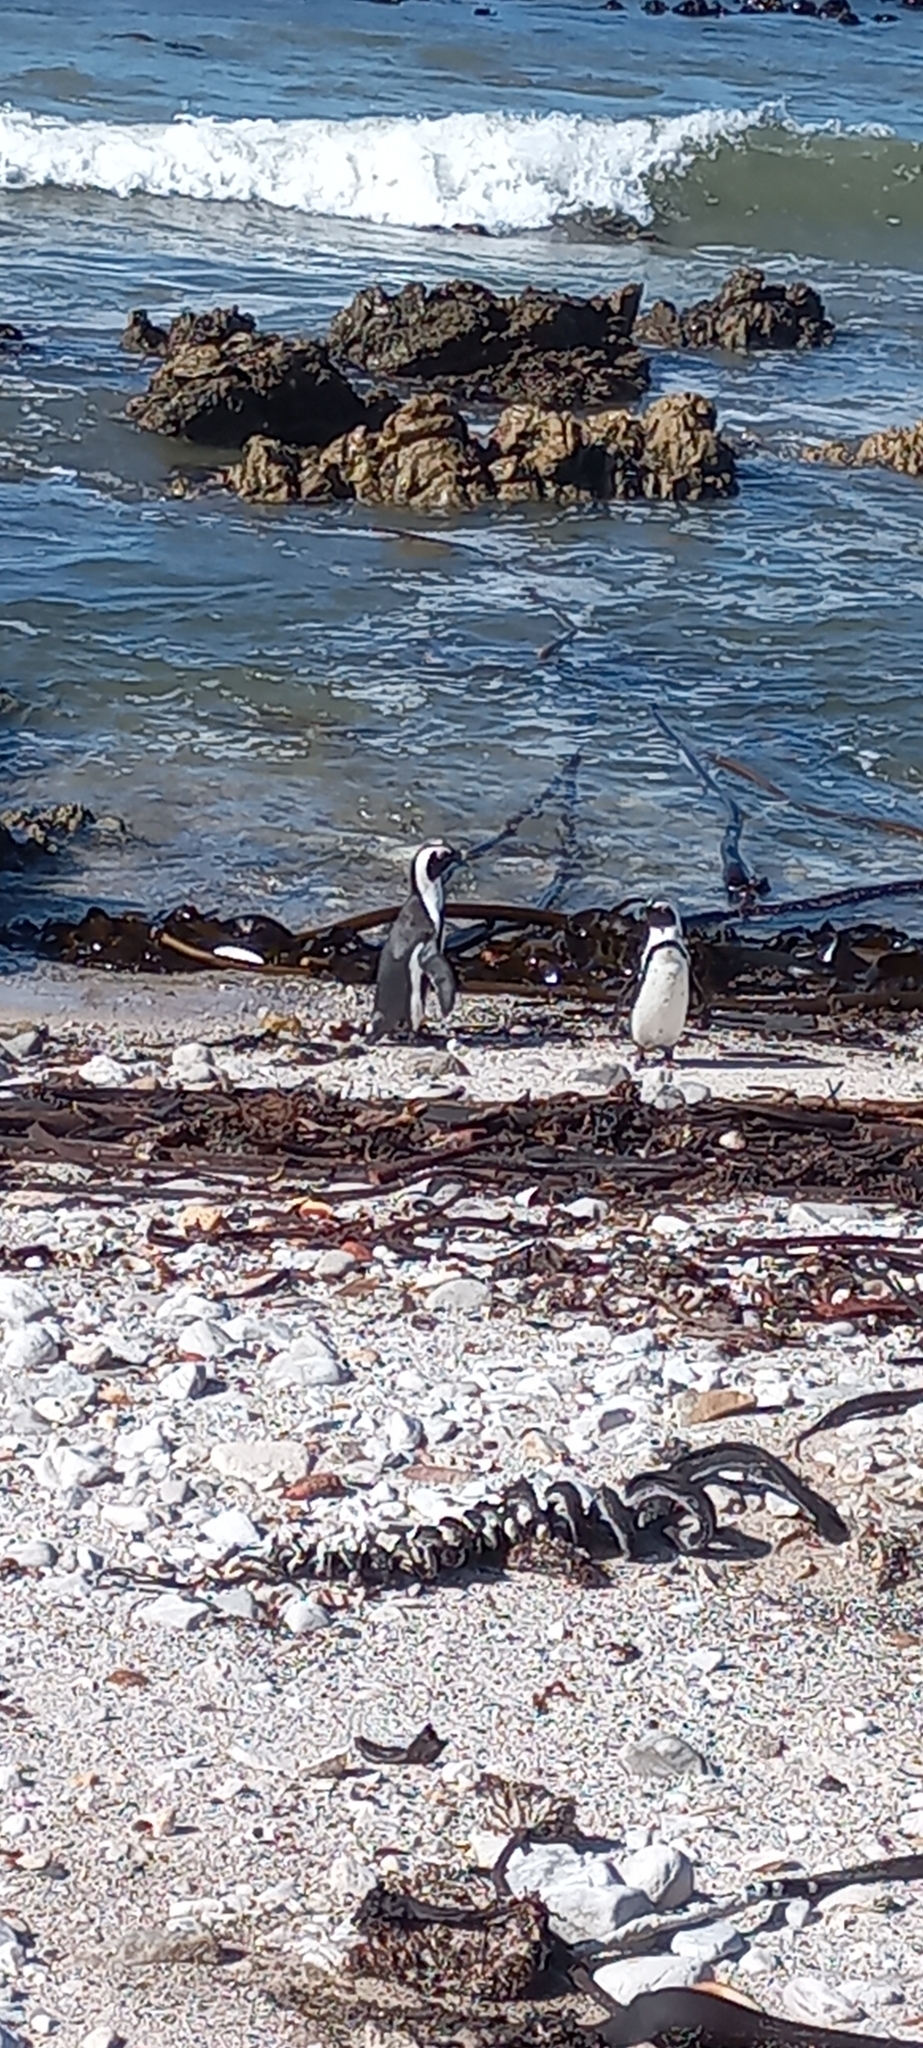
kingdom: Animalia
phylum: Chordata
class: Aves
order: Sphenisciformes
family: Spheniscidae
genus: Spheniscus
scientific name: Spheniscus demersus
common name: African penguin
